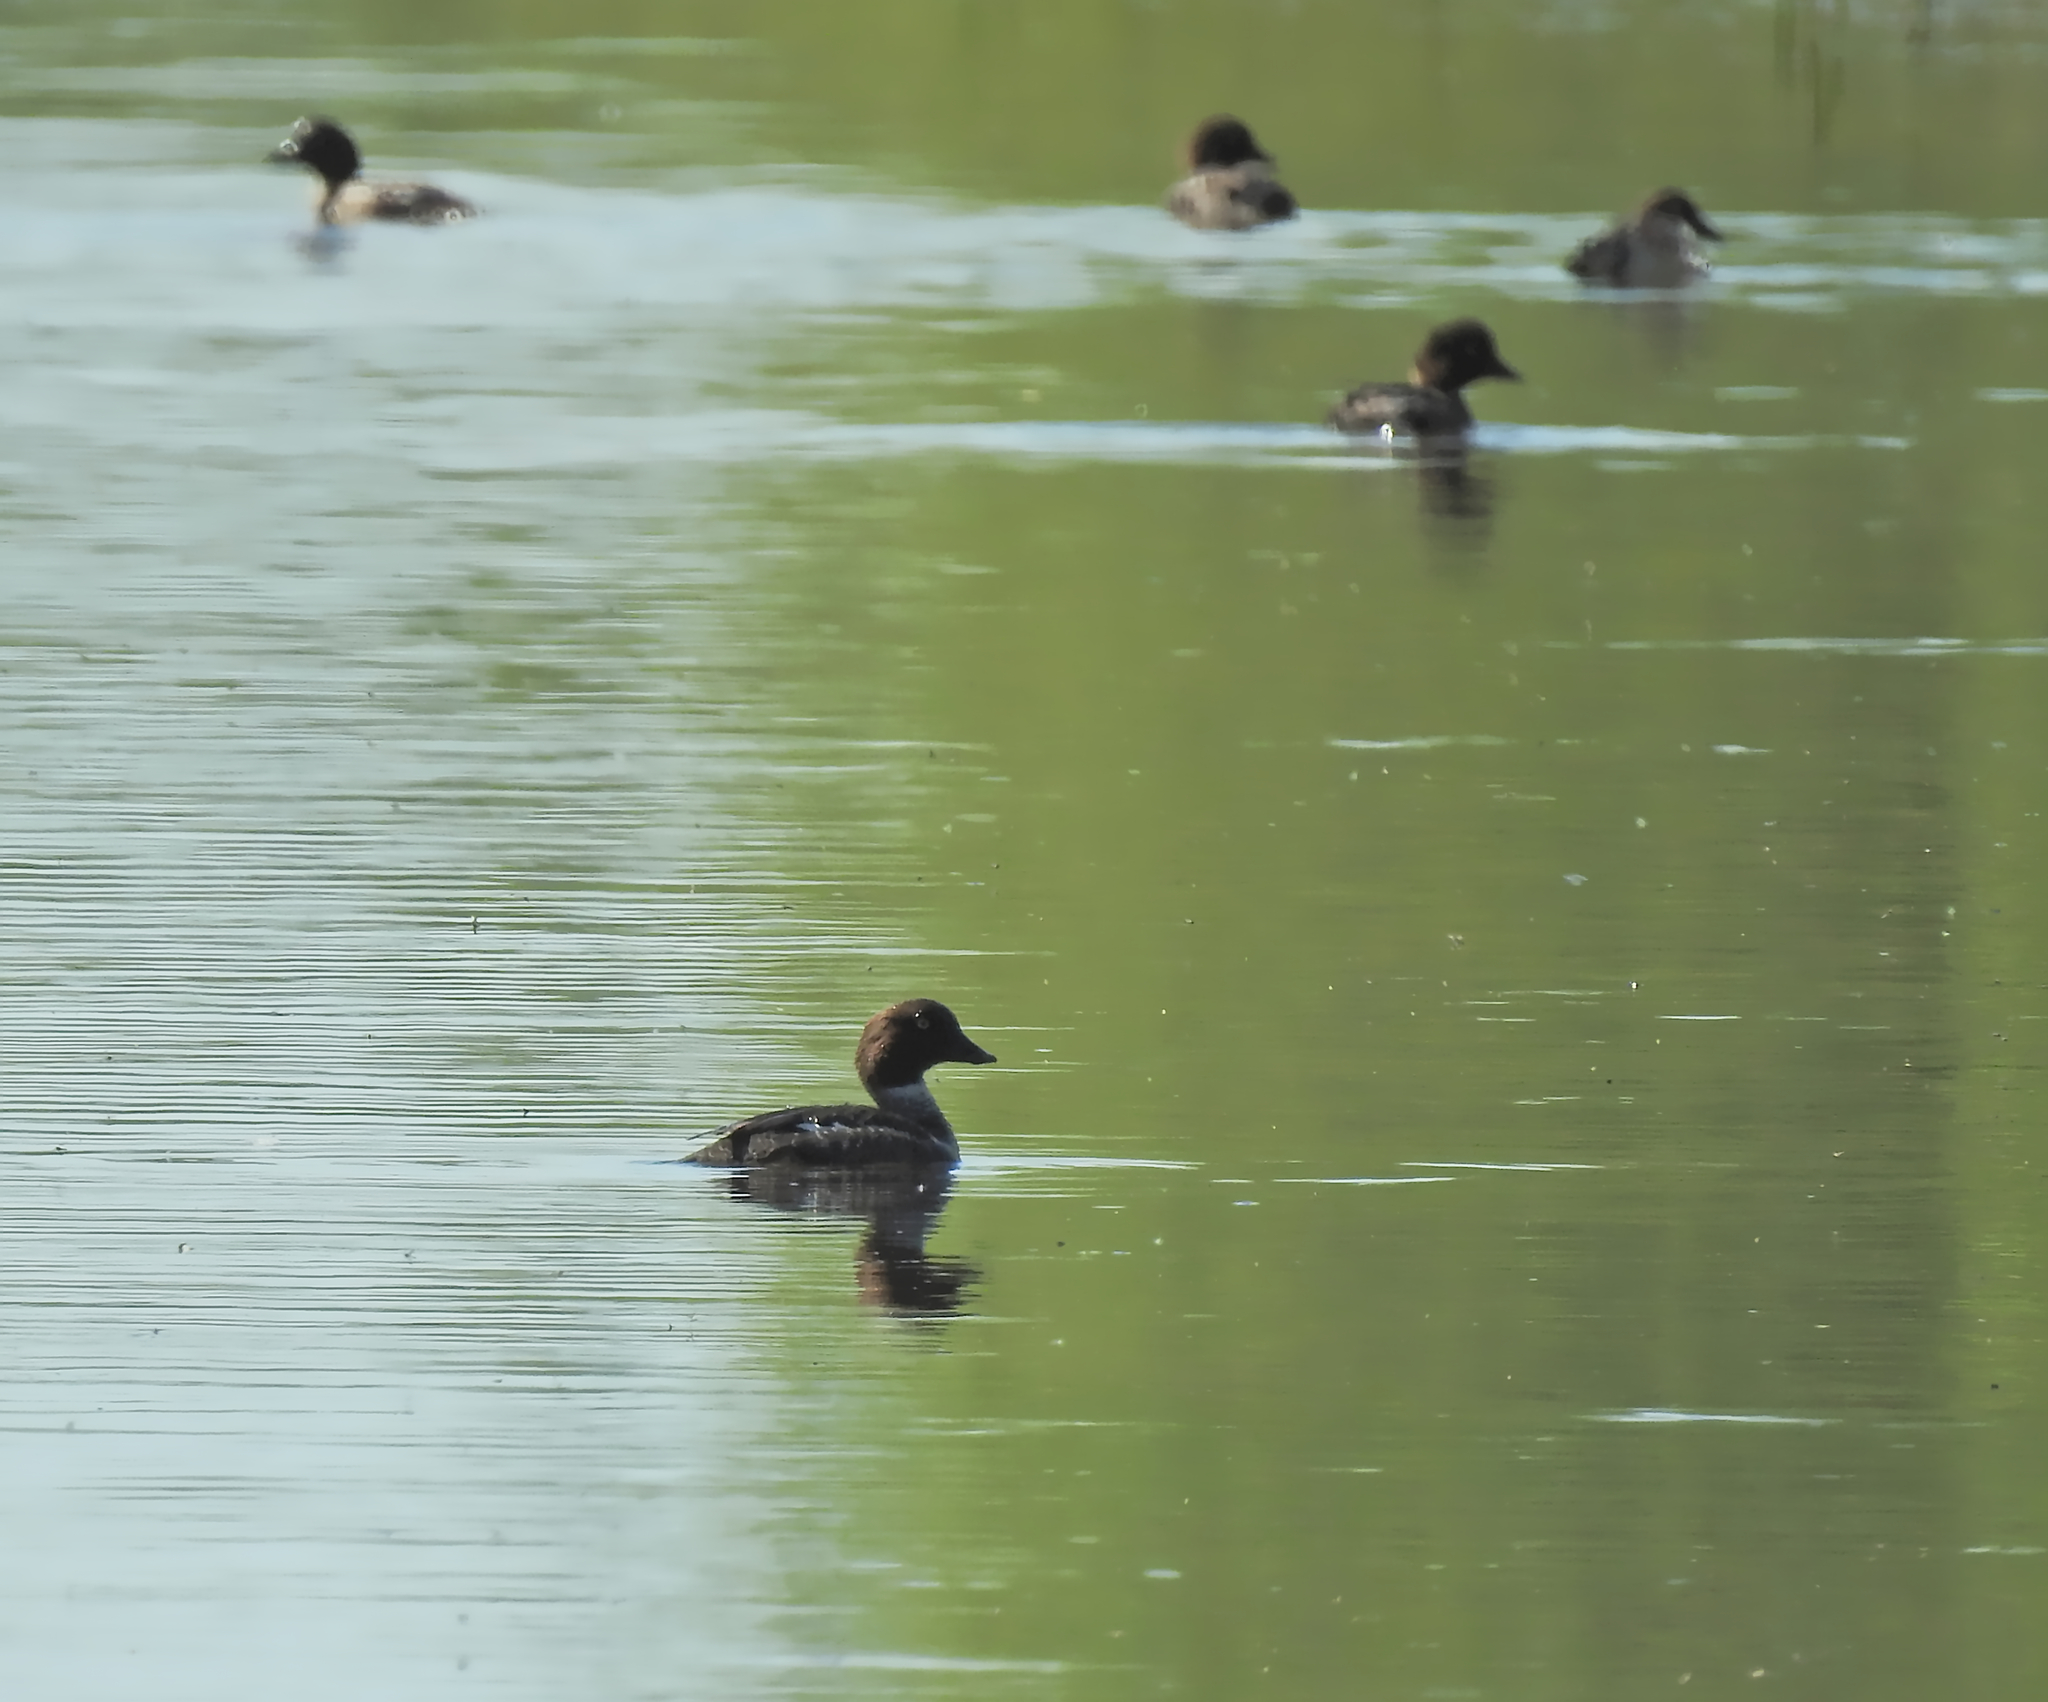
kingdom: Animalia
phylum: Chordata
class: Aves
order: Anseriformes
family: Anatidae
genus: Bucephala
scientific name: Bucephala clangula
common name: Common goldeneye
